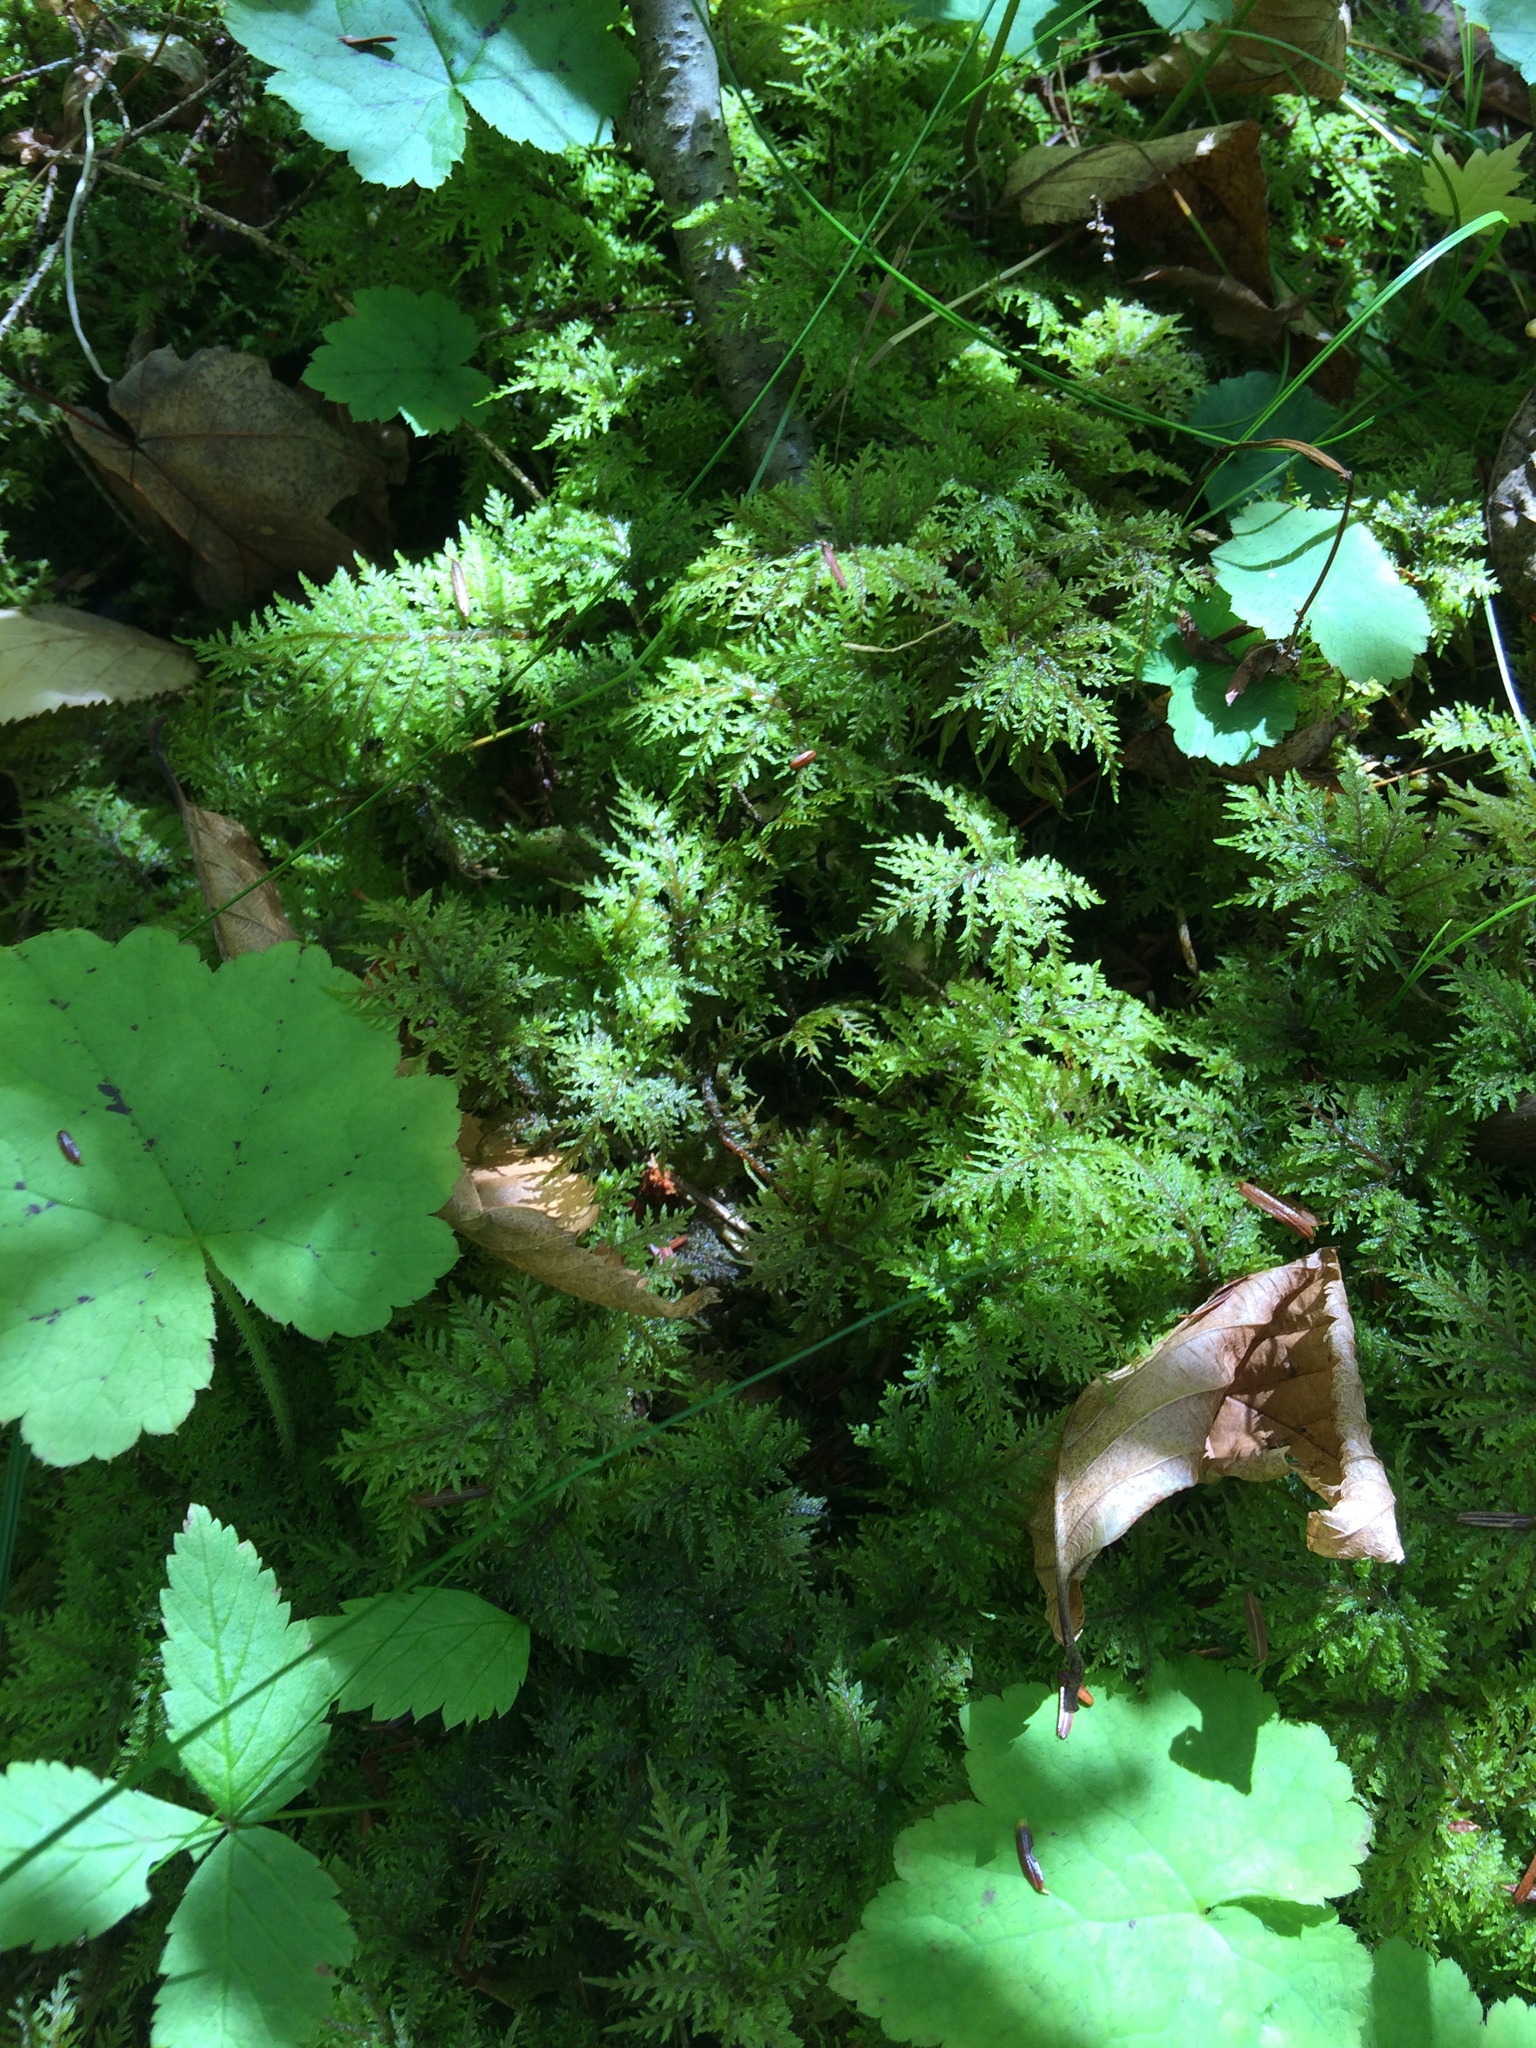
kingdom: Plantae
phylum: Bryophyta
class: Bryopsida
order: Hypnales
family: Hylocomiaceae
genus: Hylocomium
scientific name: Hylocomium splendens
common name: Stairstep moss
